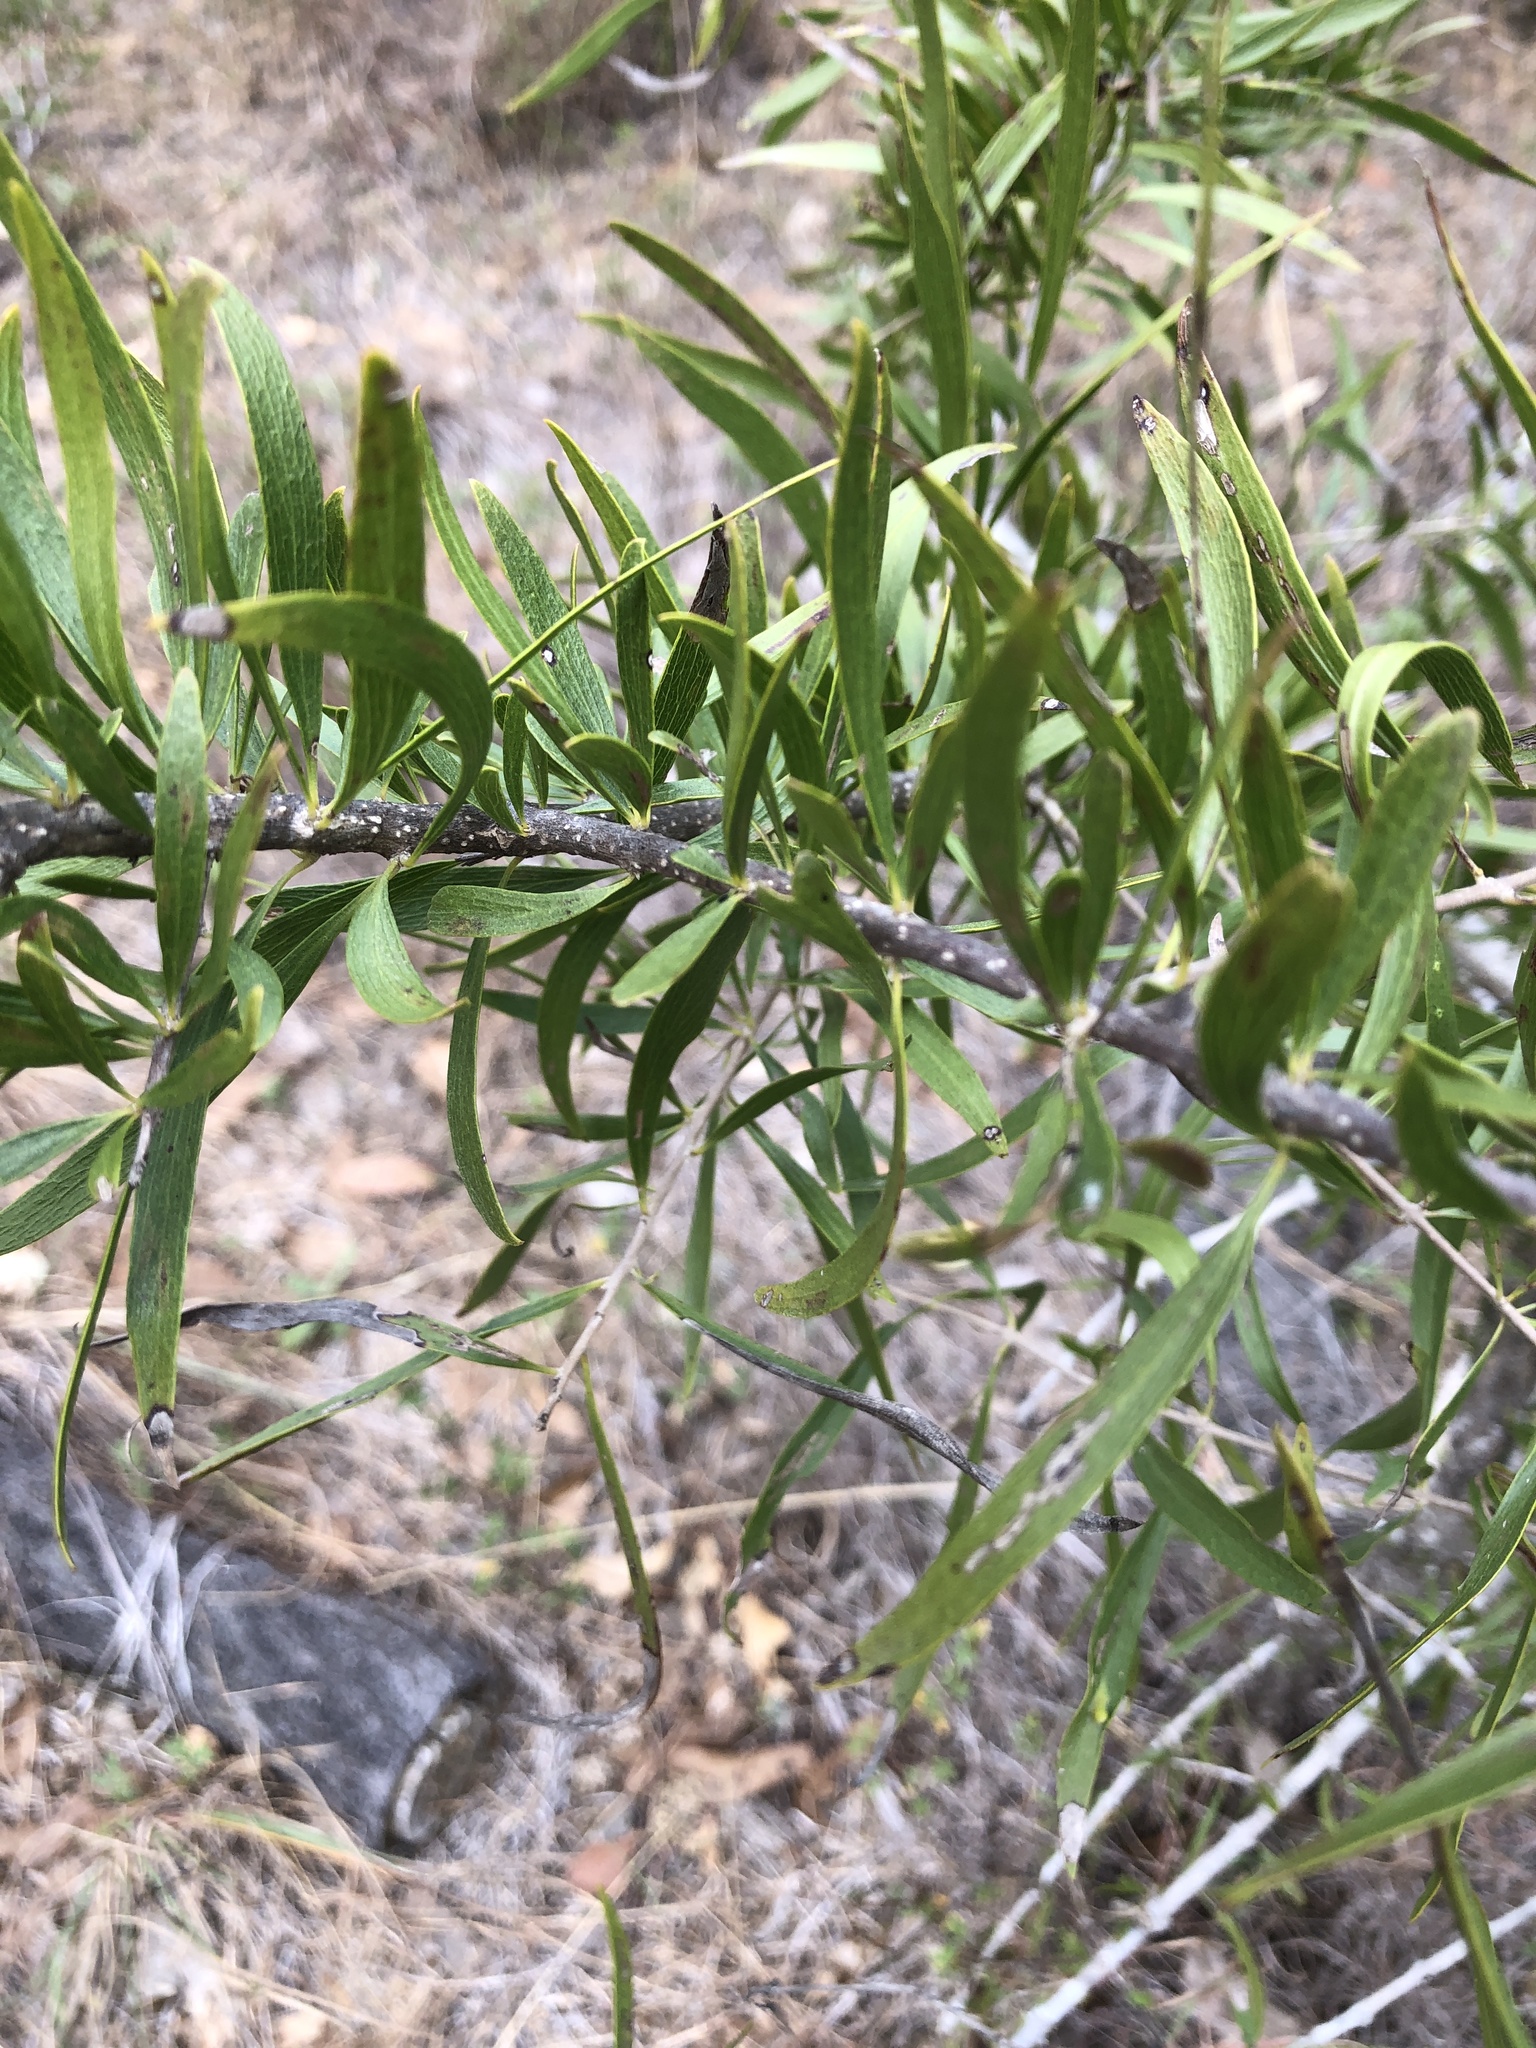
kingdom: Plantae
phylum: Tracheophyta
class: Magnoliopsida
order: Lamiales
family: Bignoniaceae
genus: Dolichandrone
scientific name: Dolichandrone alternifolia
